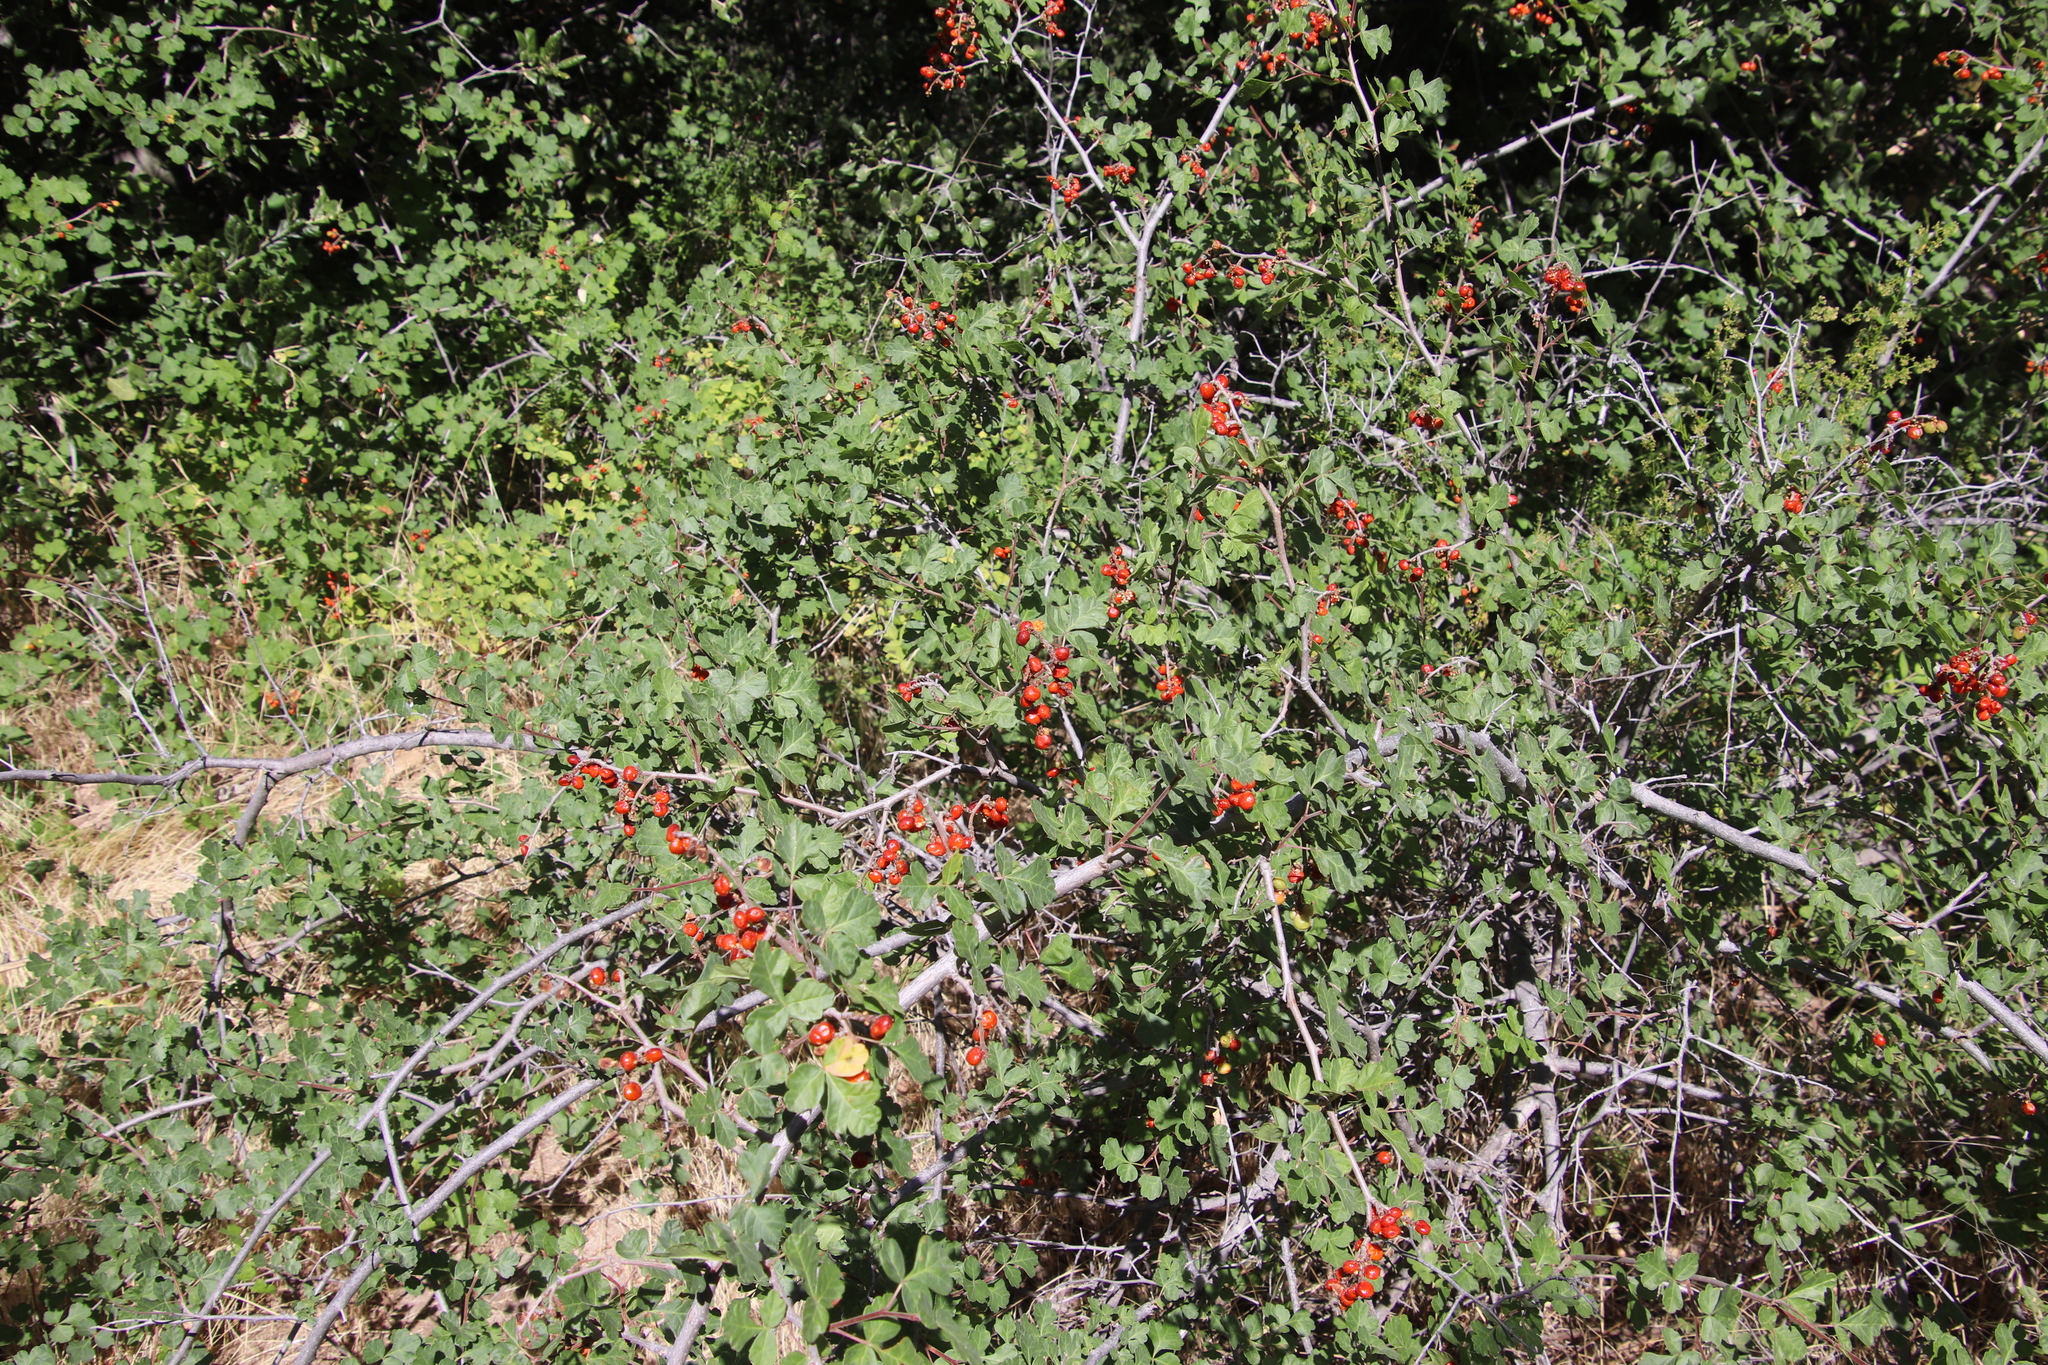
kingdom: Plantae
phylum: Tracheophyta
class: Magnoliopsida
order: Sapindales
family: Anacardiaceae
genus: Rhus
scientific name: Rhus aromatica
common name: Aromatic sumac
